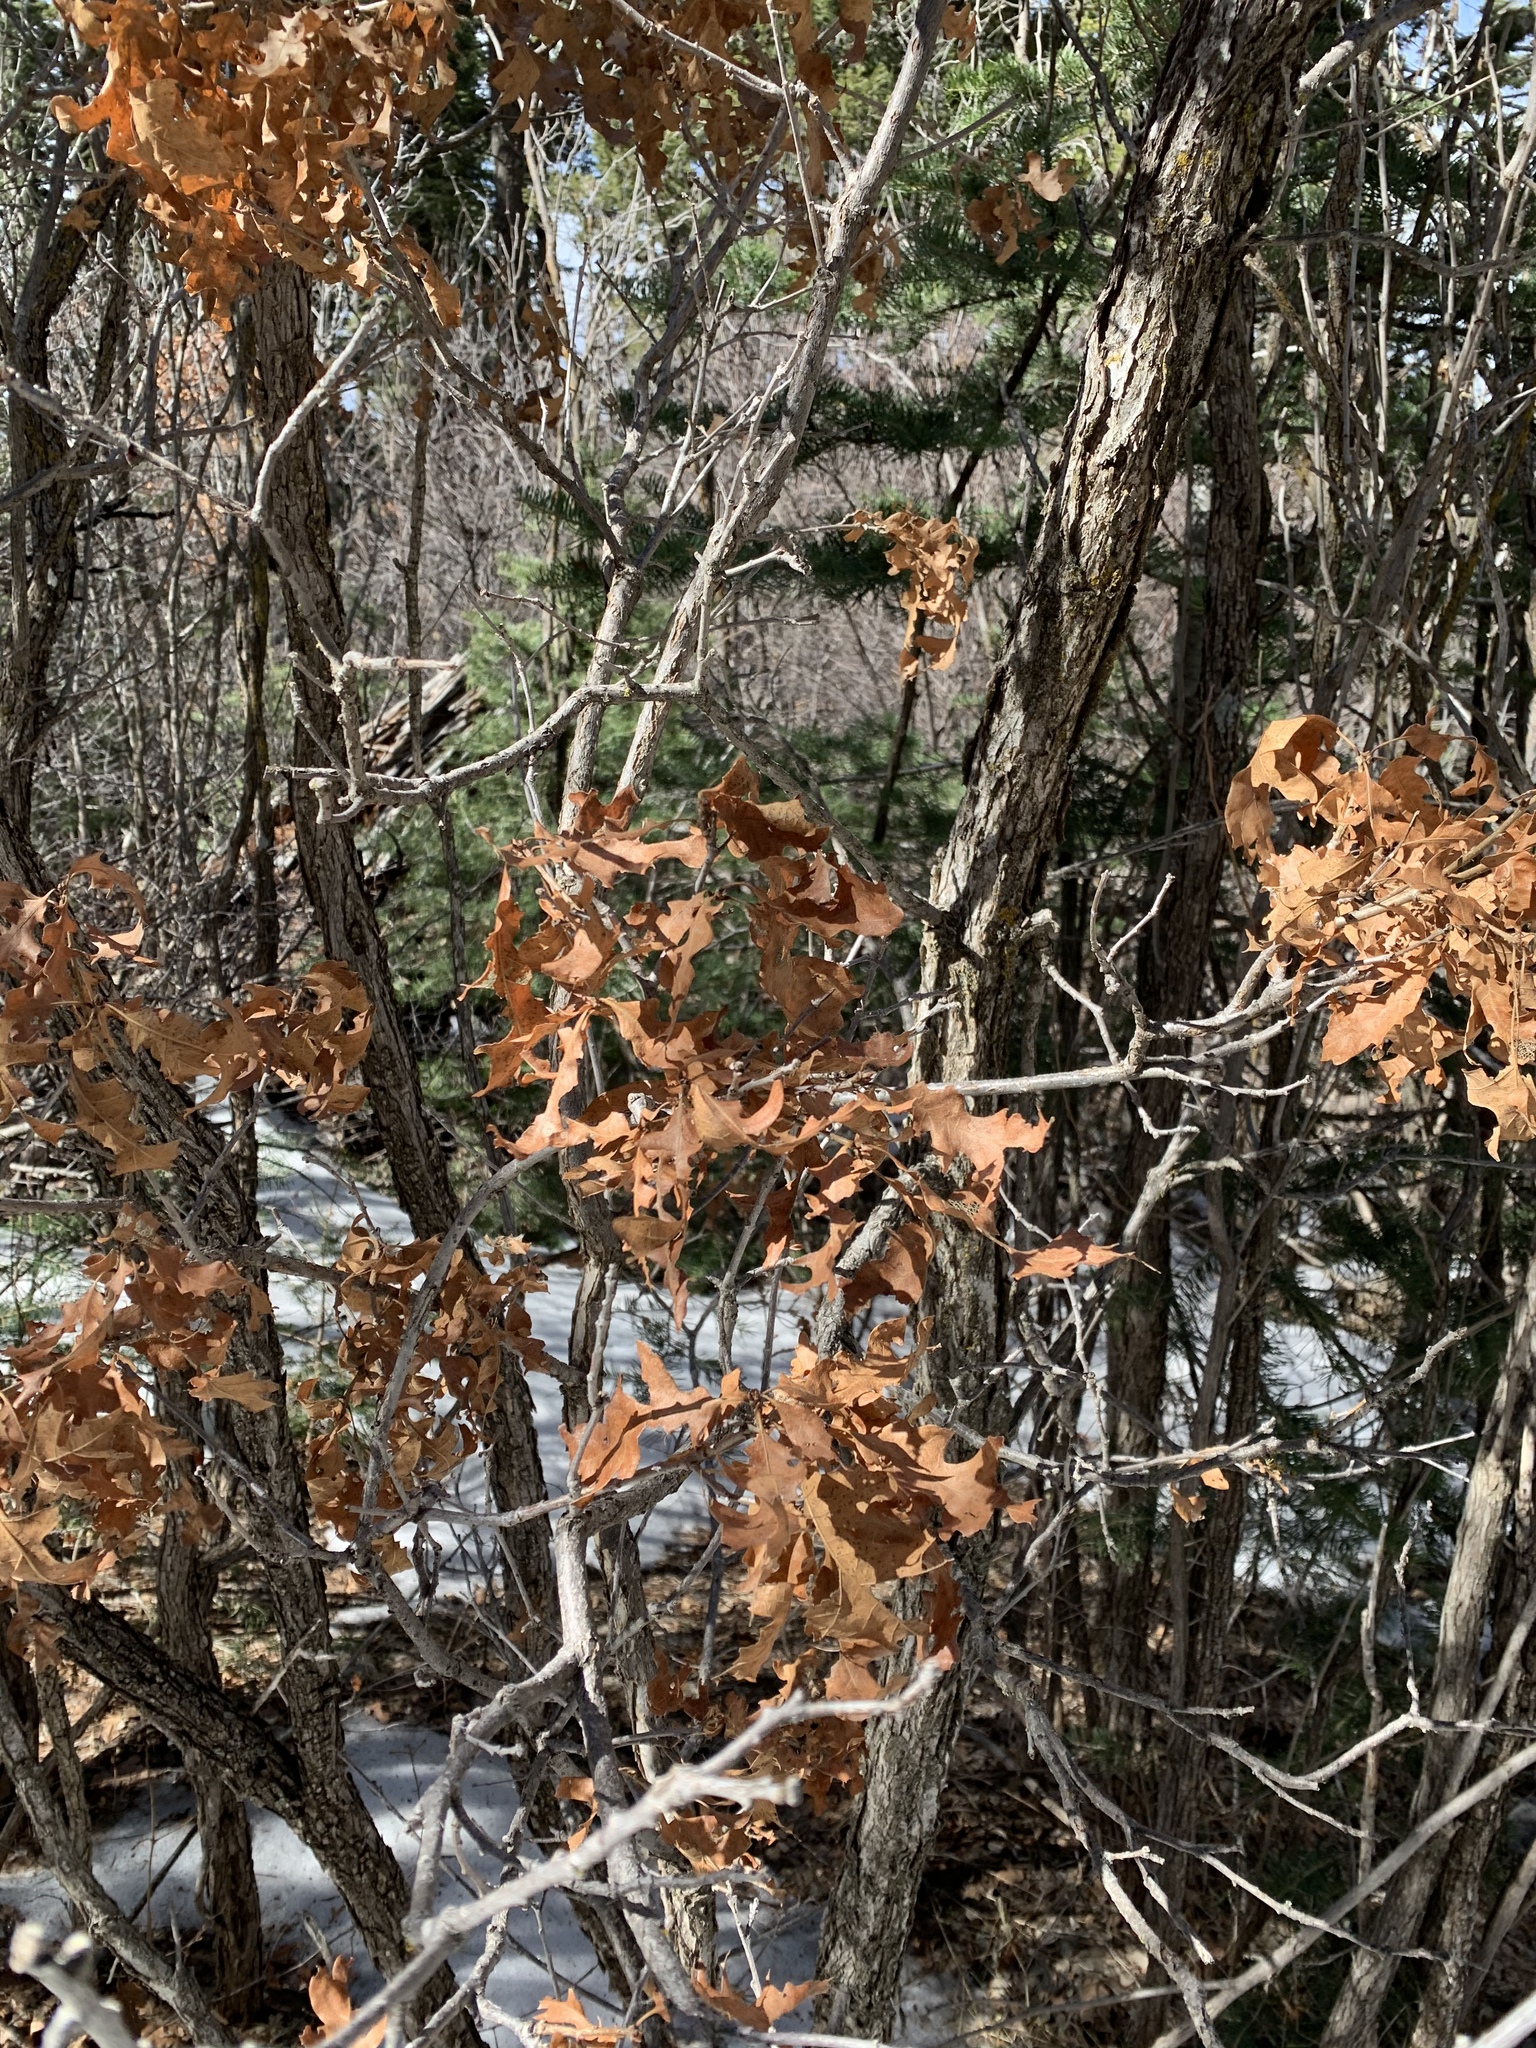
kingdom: Plantae
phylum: Tracheophyta
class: Magnoliopsida
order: Fagales
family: Fagaceae
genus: Quercus
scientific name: Quercus gambelii
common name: Gambel oak
